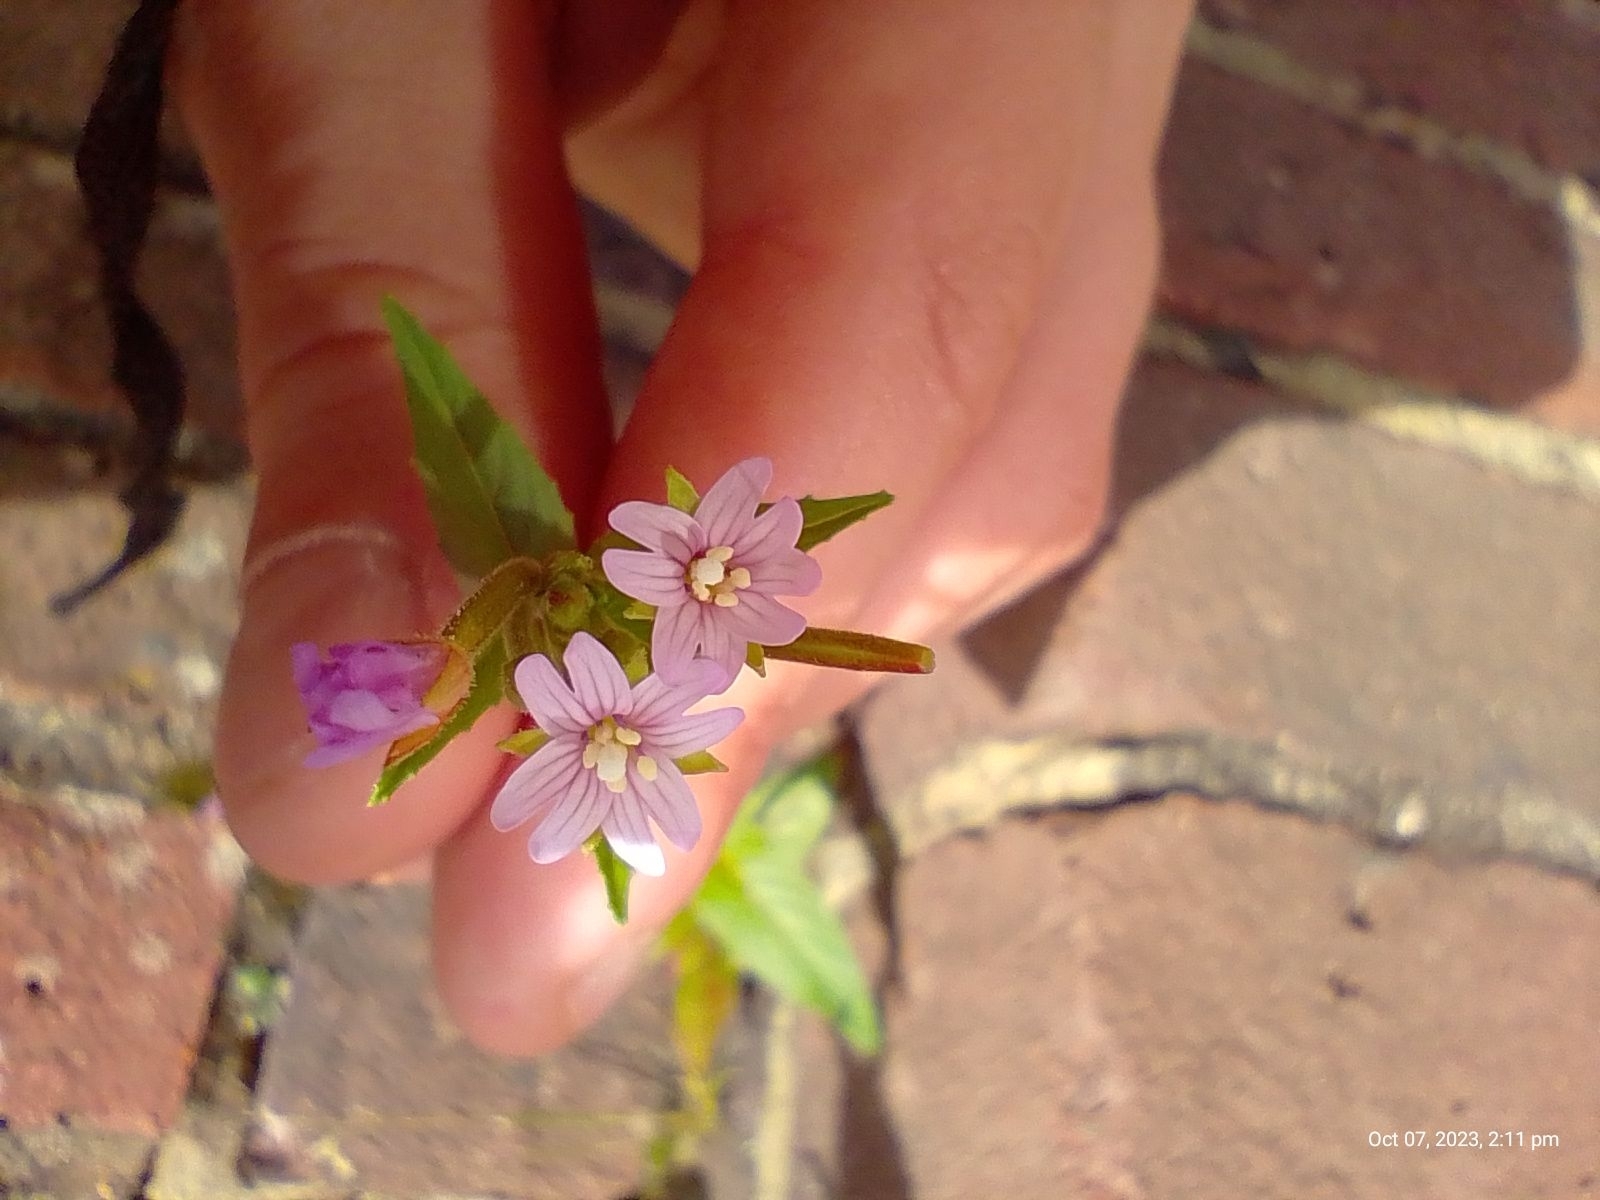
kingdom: Plantae
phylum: Tracheophyta
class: Magnoliopsida
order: Myrtales
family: Onagraceae
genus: Epilobium
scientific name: Epilobium ciliatum
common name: American willowherb
